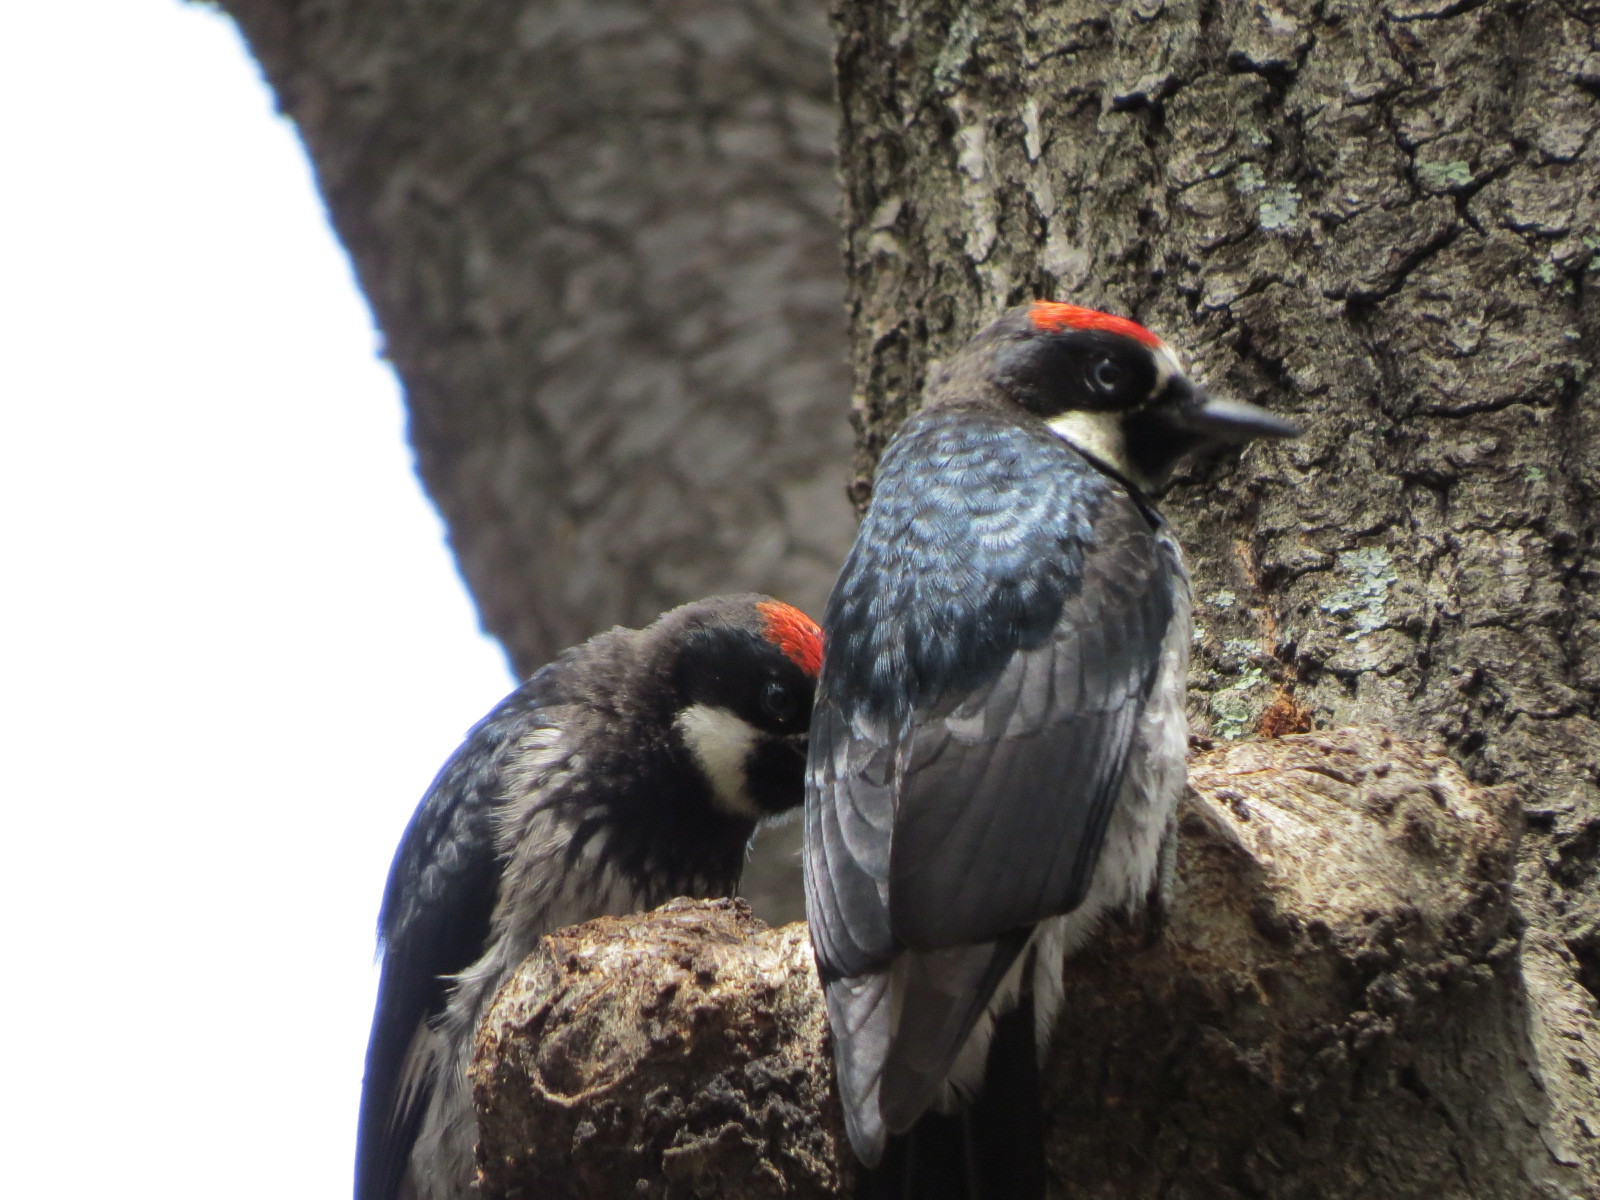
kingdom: Animalia
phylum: Chordata
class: Aves
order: Piciformes
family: Picidae
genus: Melanerpes
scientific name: Melanerpes formicivorus
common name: Acorn woodpecker
